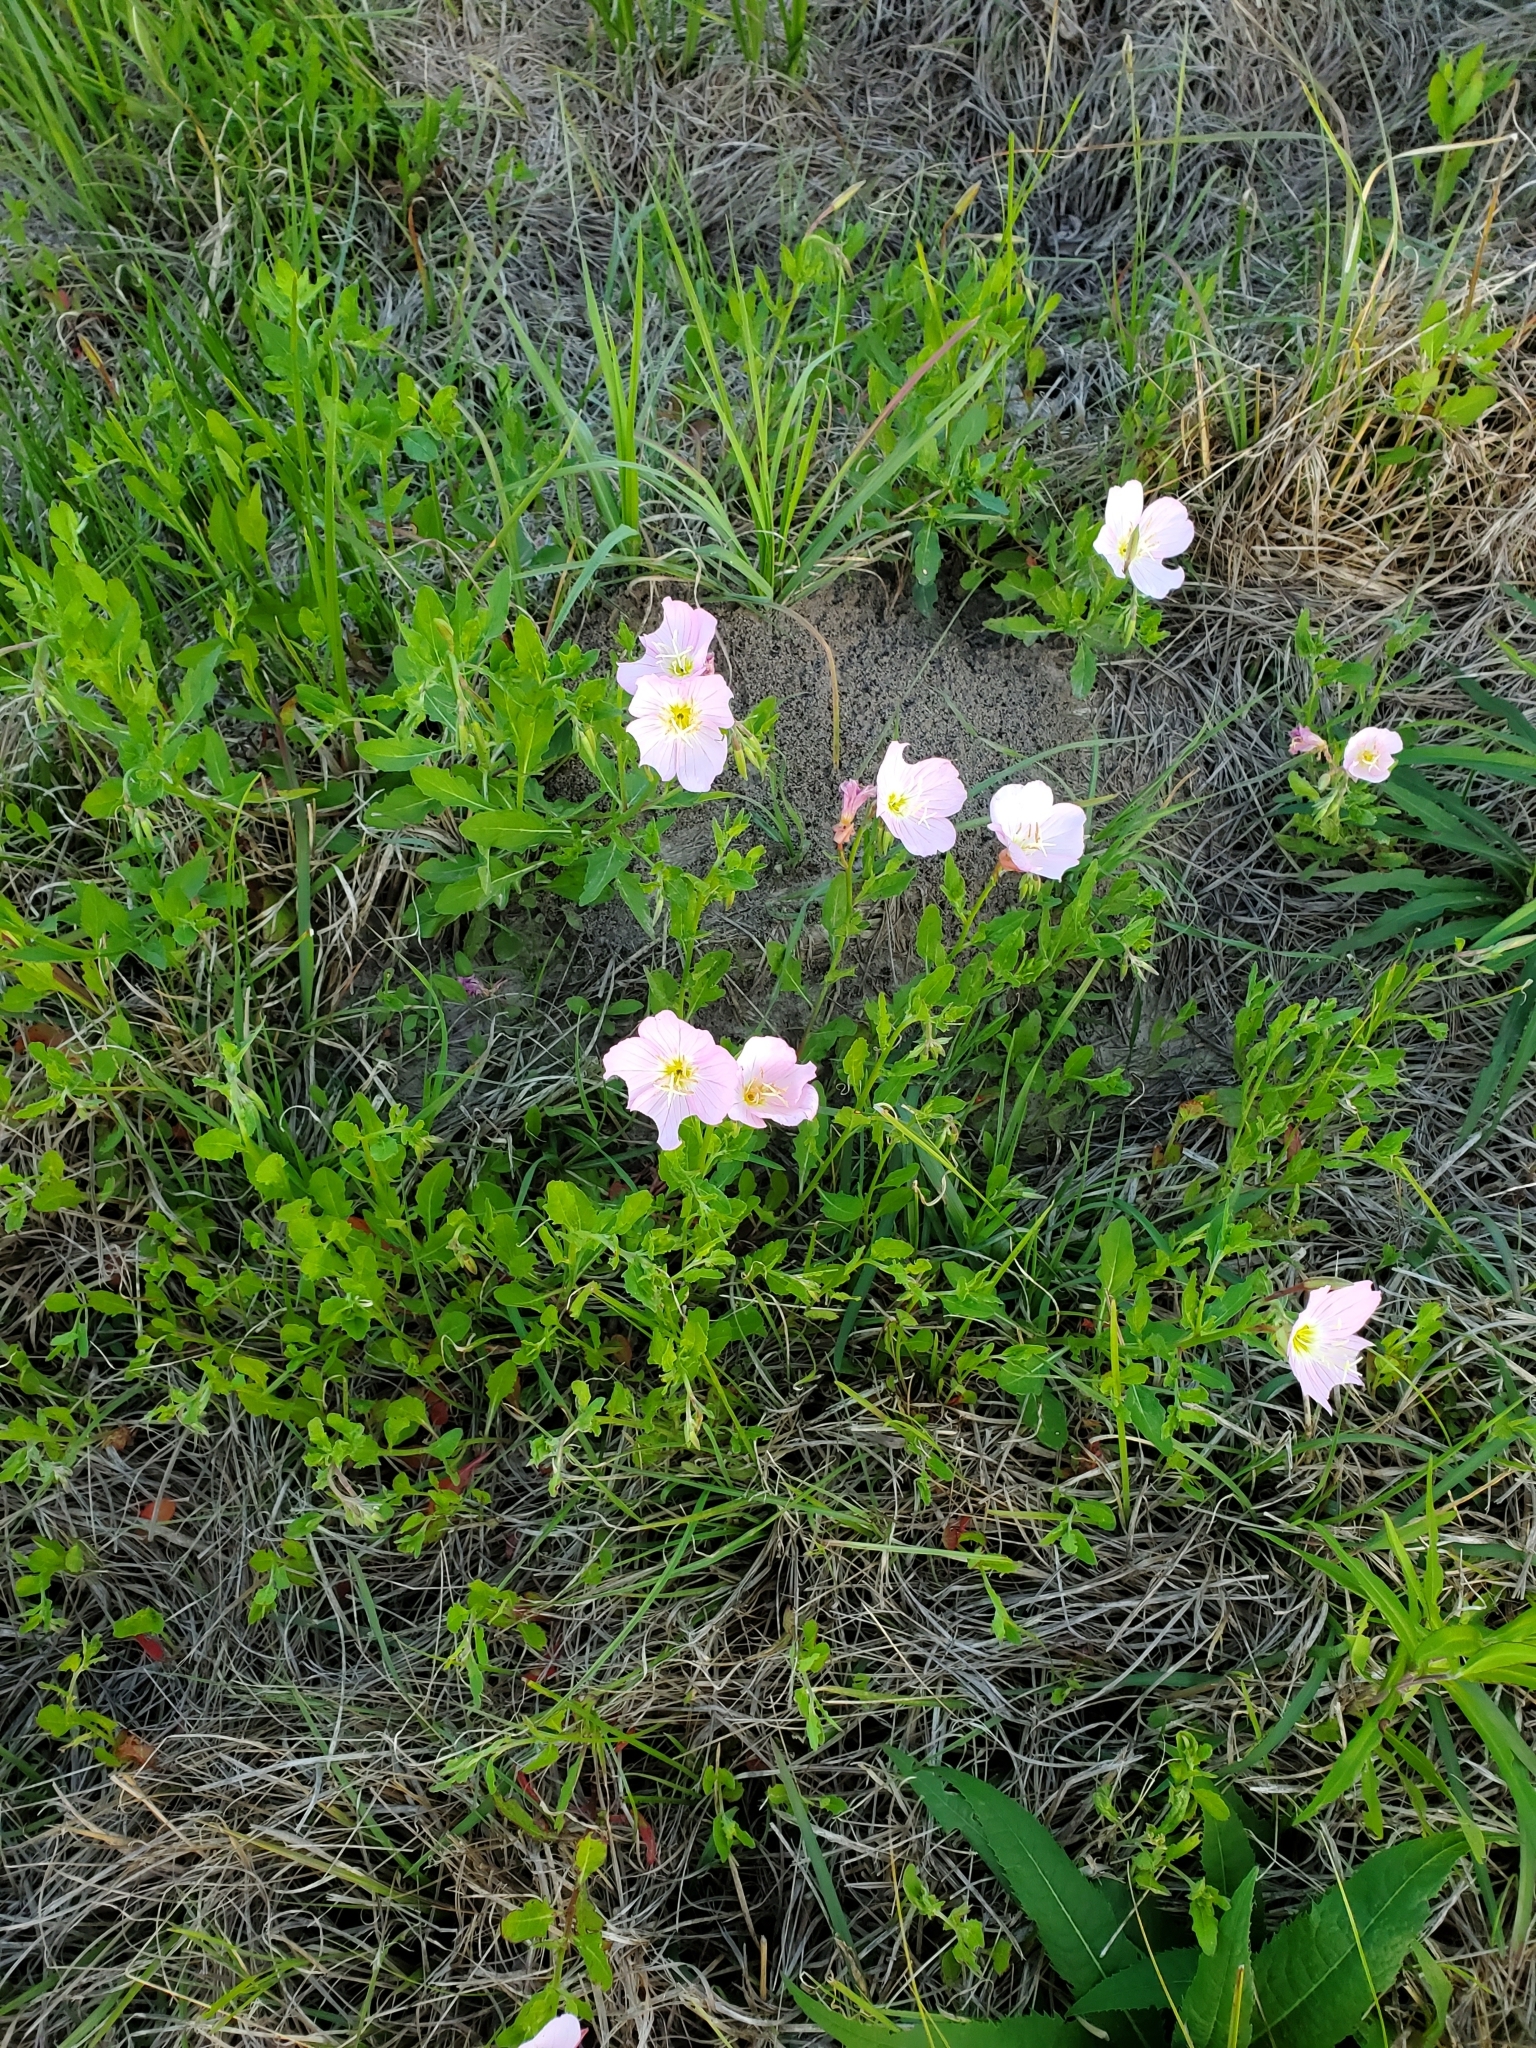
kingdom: Plantae
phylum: Tracheophyta
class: Magnoliopsida
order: Myrtales
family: Onagraceae
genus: Oenothera
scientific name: Oenothera speciosa
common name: White evening-primrose
